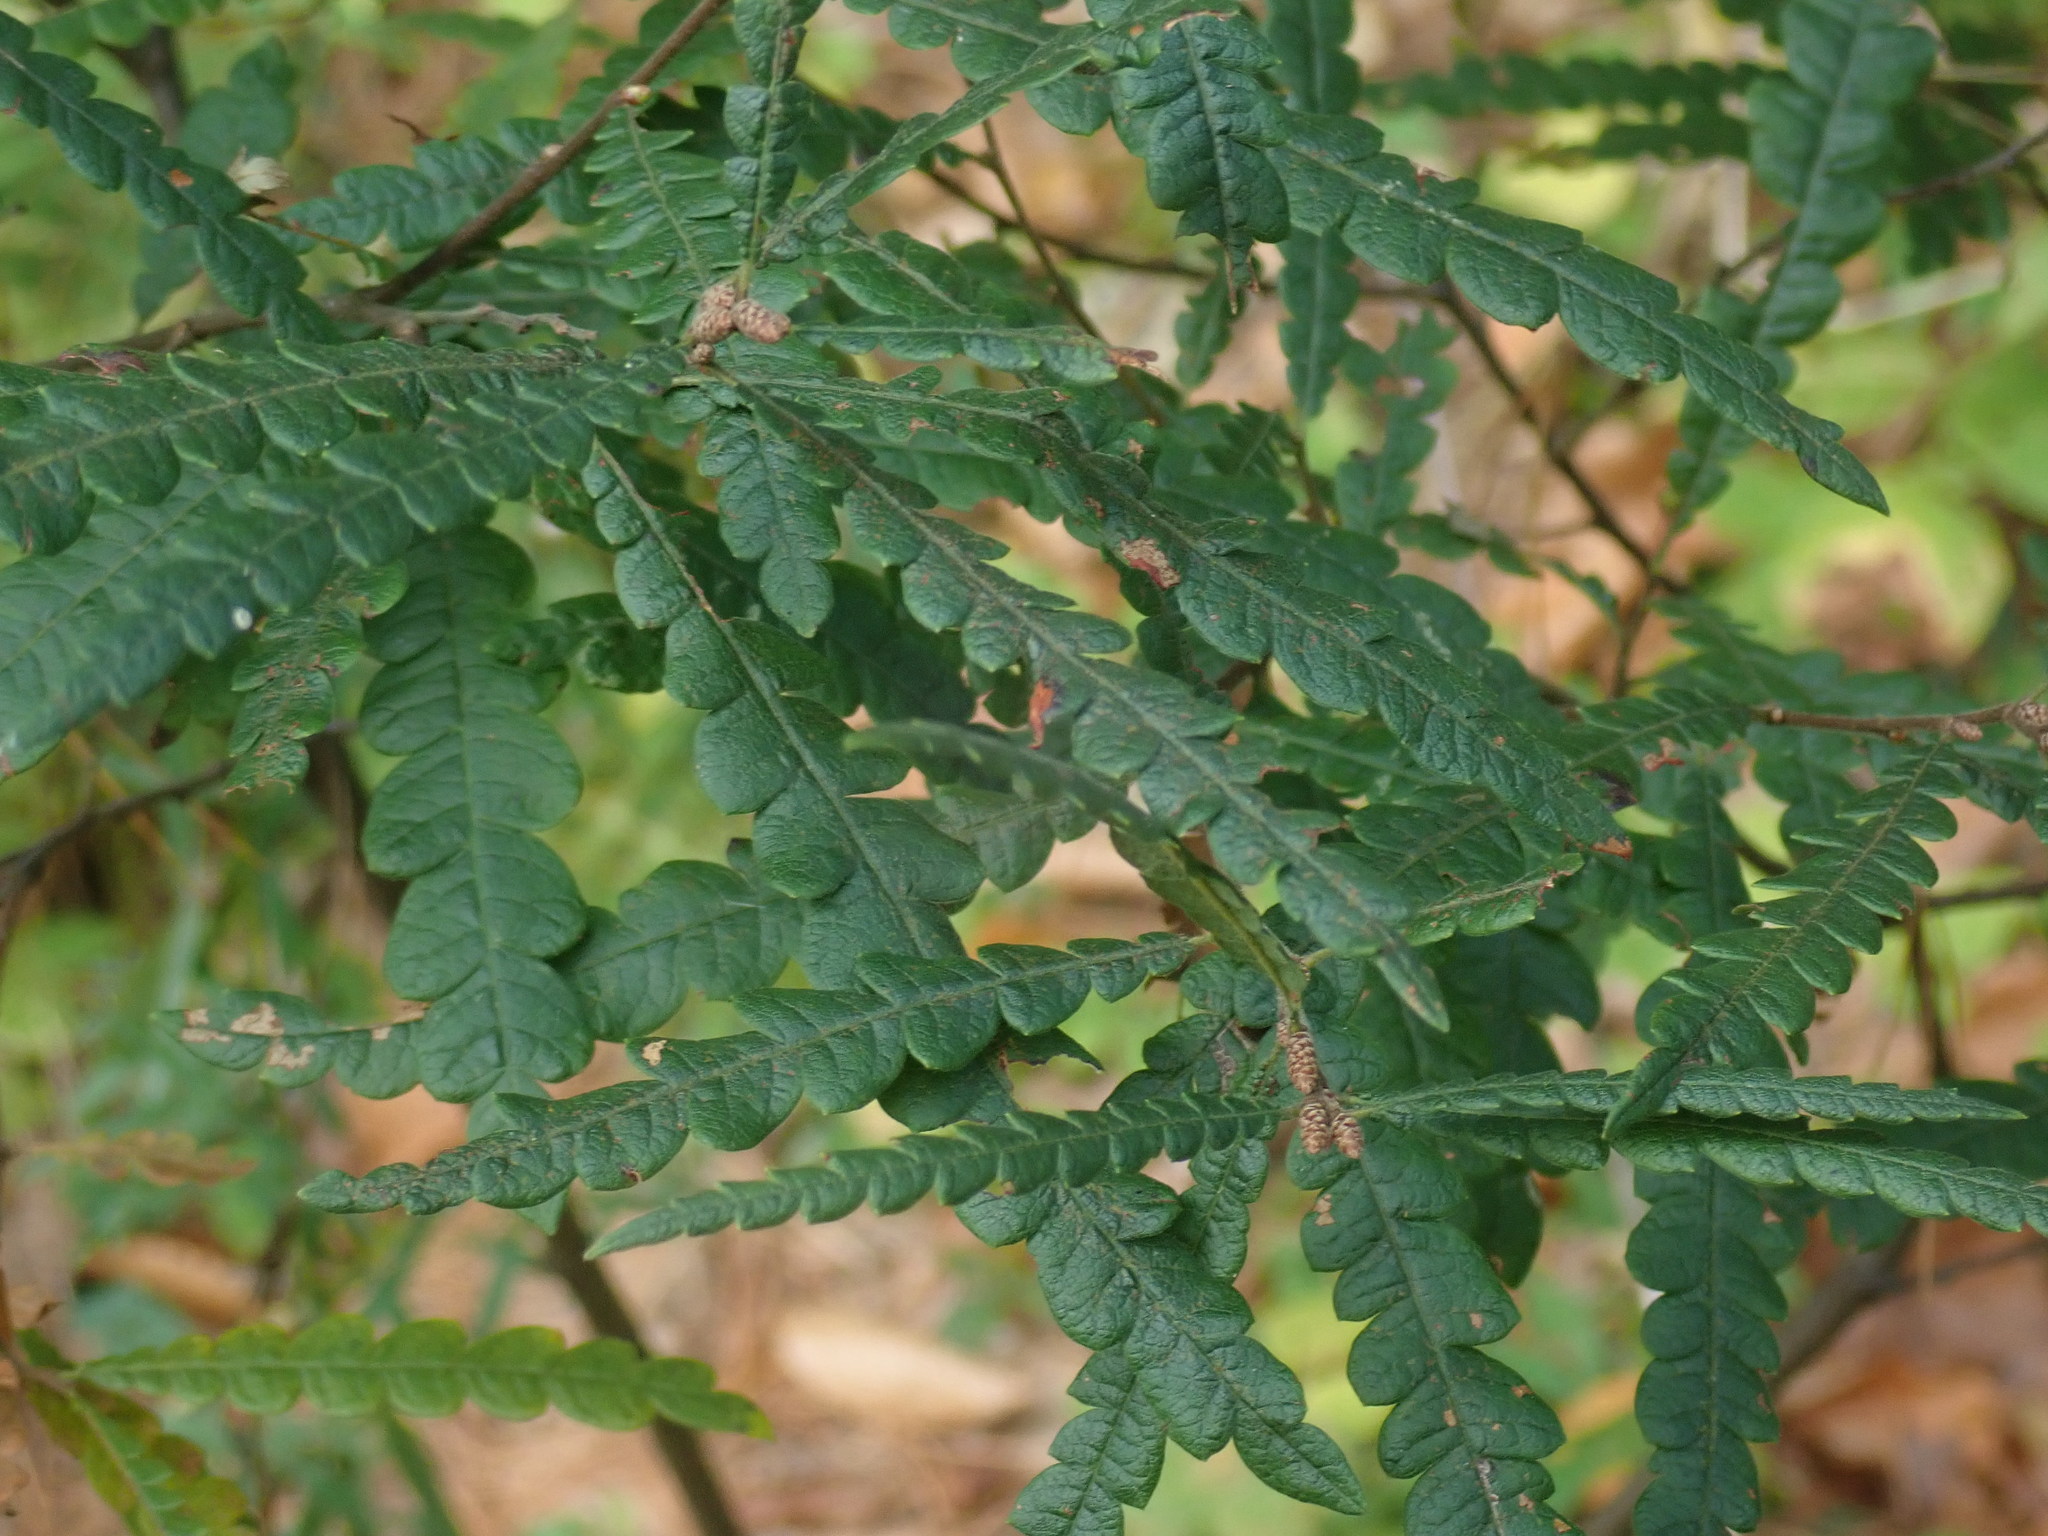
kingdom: Plantae
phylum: Tracheophyta
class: Magnoliopsida
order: Fagales
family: Myricaceae
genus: Comptonia
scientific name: Comptonia peregrina
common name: Sweet-fern
